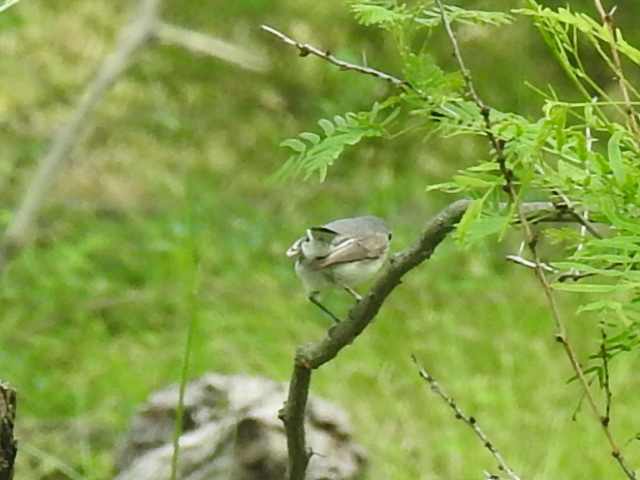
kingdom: Animalia
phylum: Chordata
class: Aves
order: Passeriformes
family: Polioptilidae
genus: Polioptila
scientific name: Polioptila caerulea
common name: Blue-gray gnatcatcher
